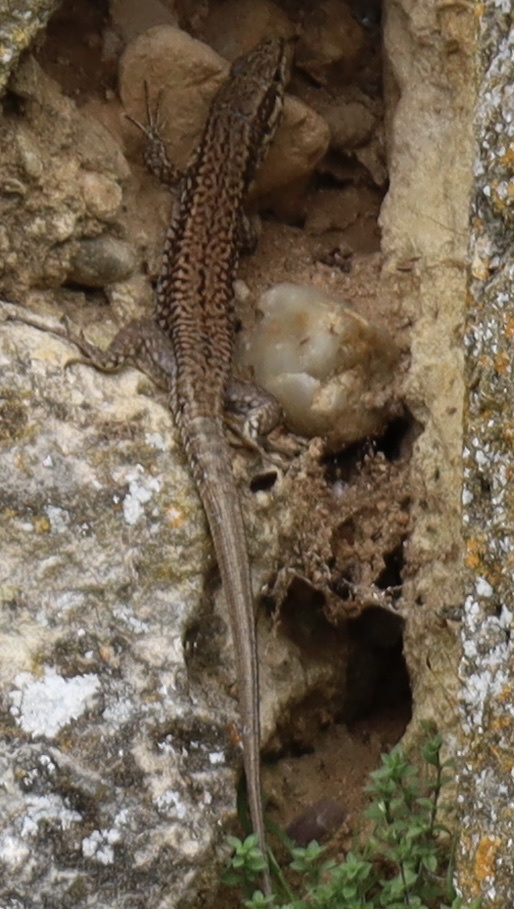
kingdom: Animalia
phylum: Chordata
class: Squamata
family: Lacertidae
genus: Podarcis
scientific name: Podarcis muralis
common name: Common wall lizard
